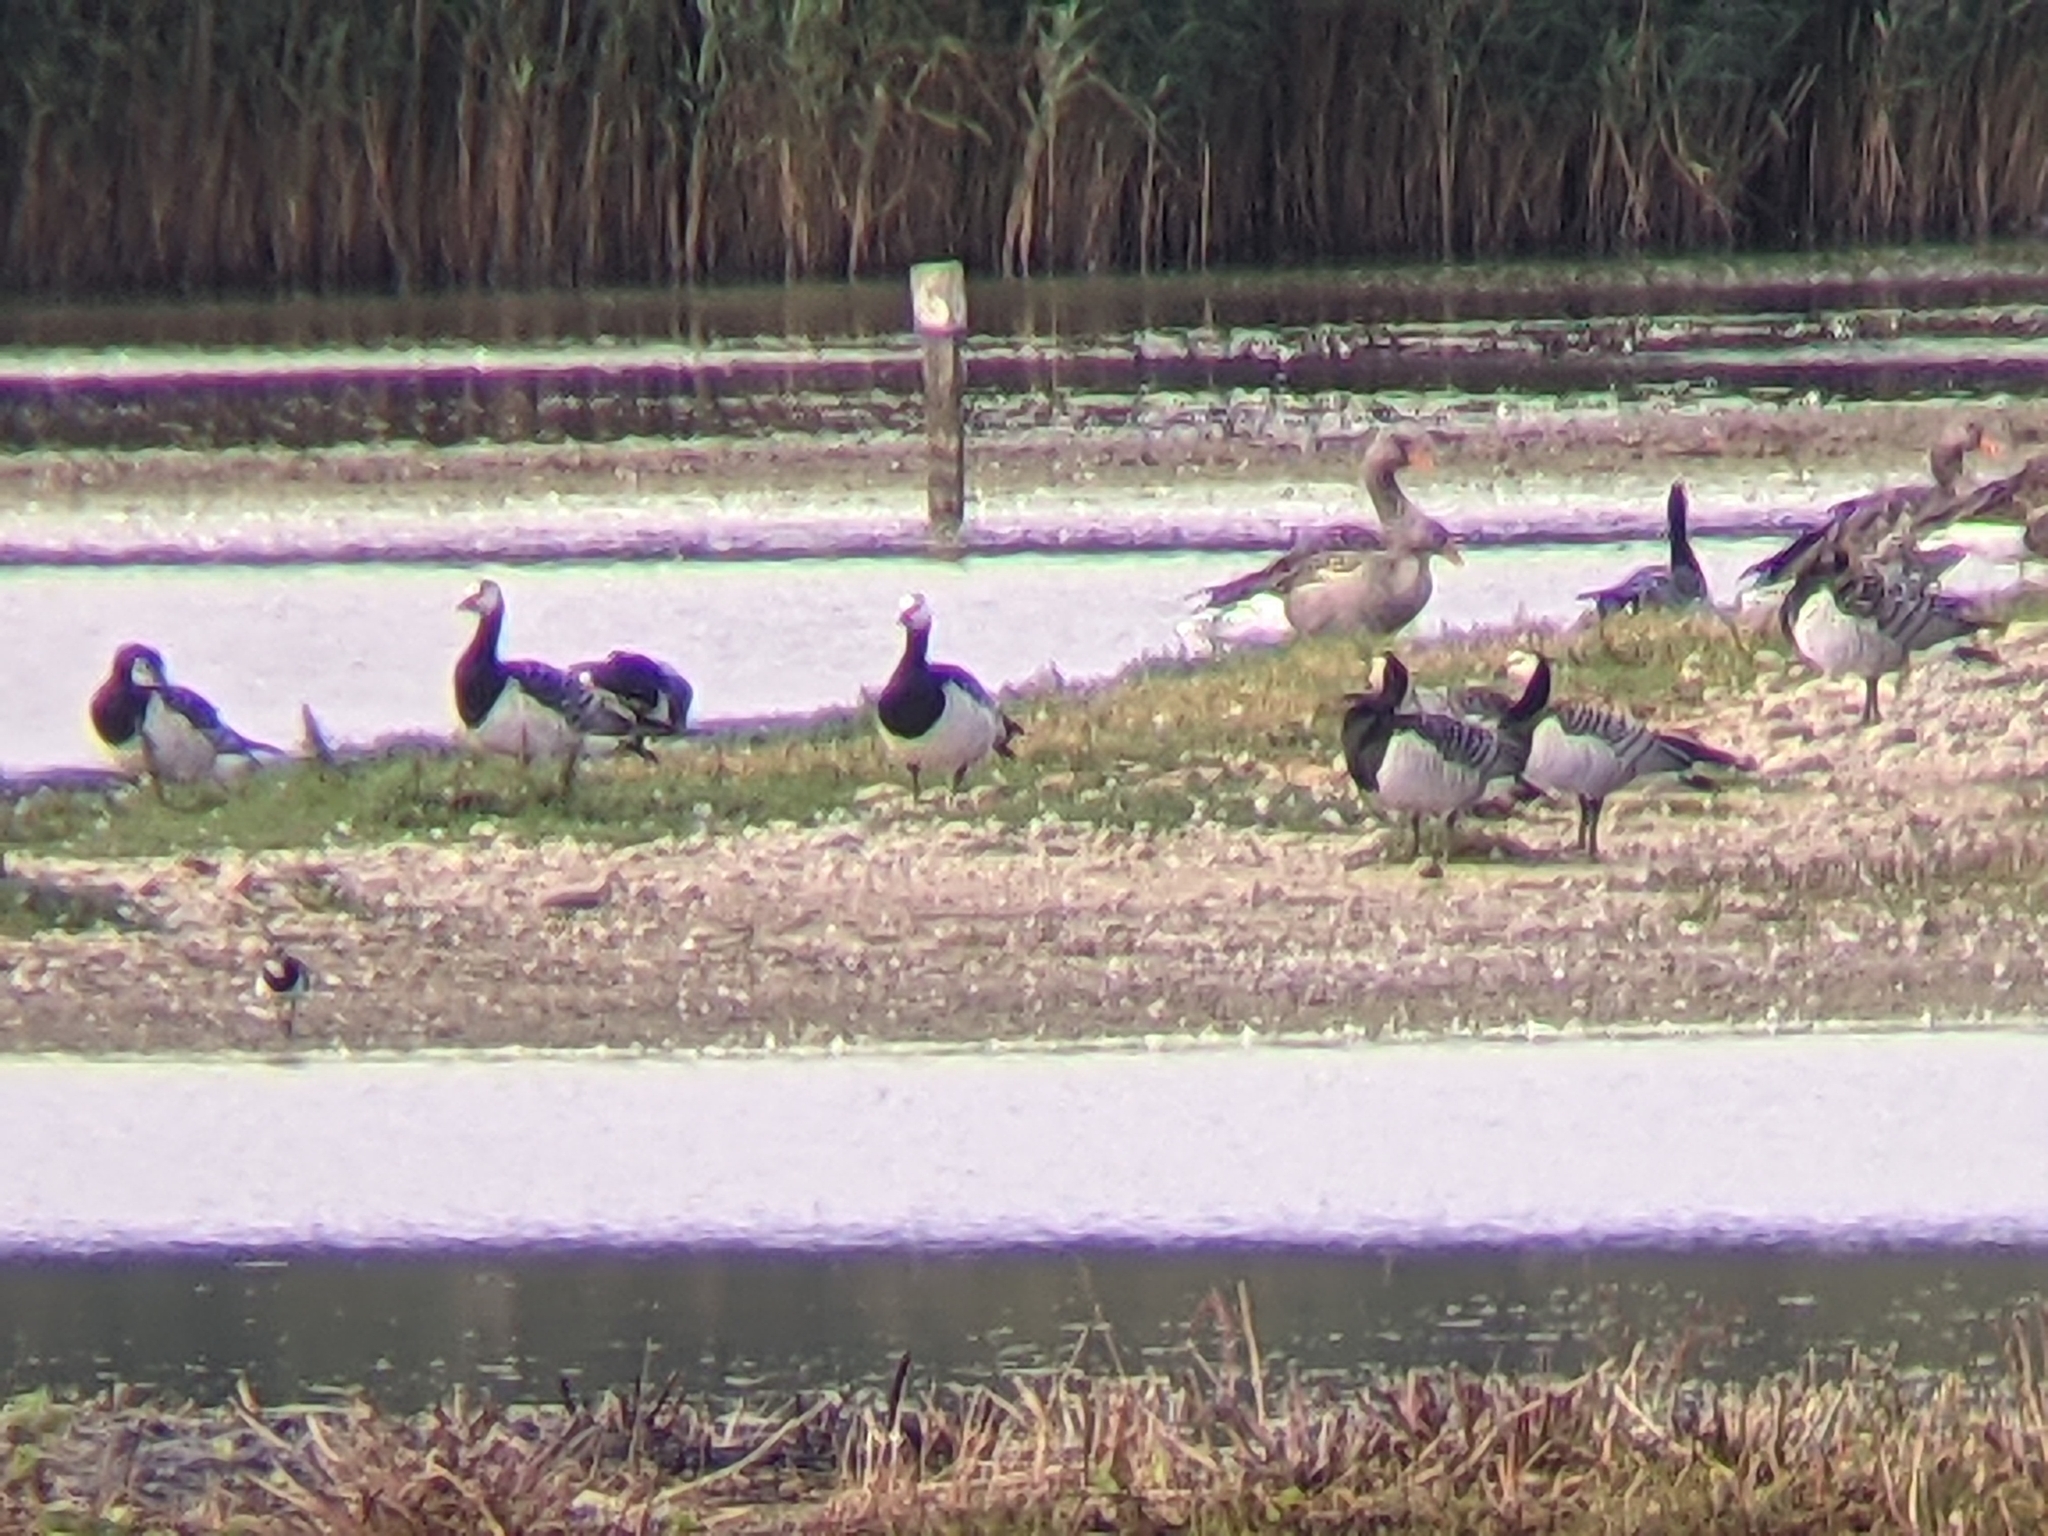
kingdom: Animalia
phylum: Chordata
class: Aves
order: Anseriformes
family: Anatidae
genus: Branta
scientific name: Branta leucopsis
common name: Barnacle goose
